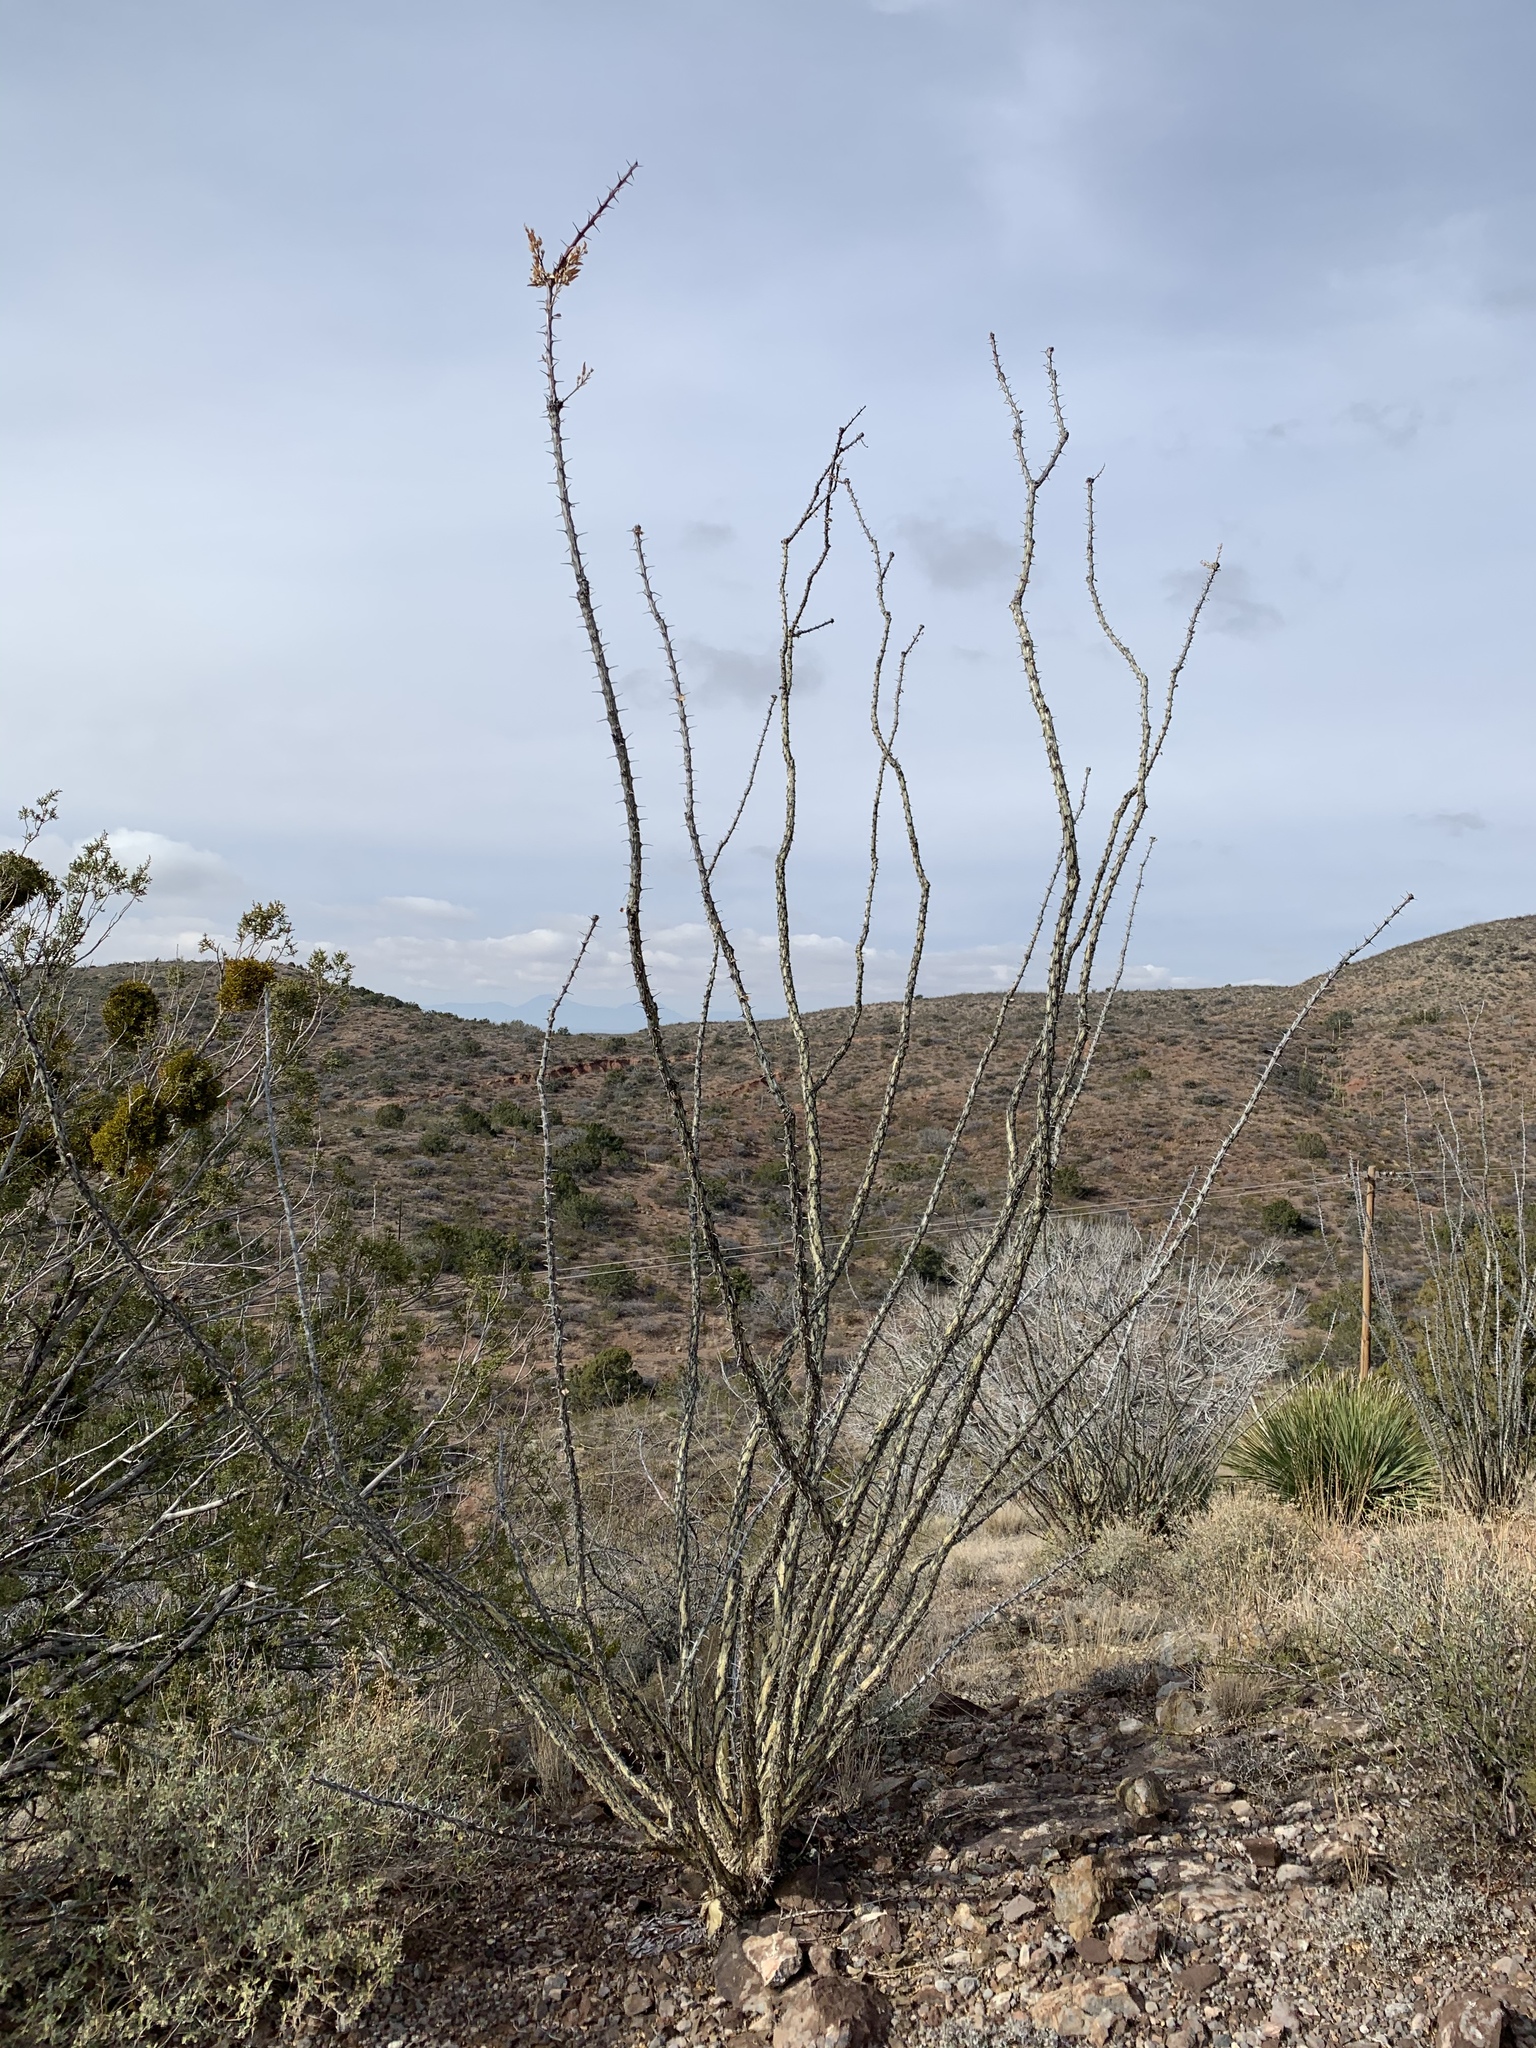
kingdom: Plantae
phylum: Tracheophyta
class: Magnoliopsida
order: Ericales
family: Fouquieriaceae
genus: Fouquieria
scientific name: Fouquieria splendens
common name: Vine-cactus
